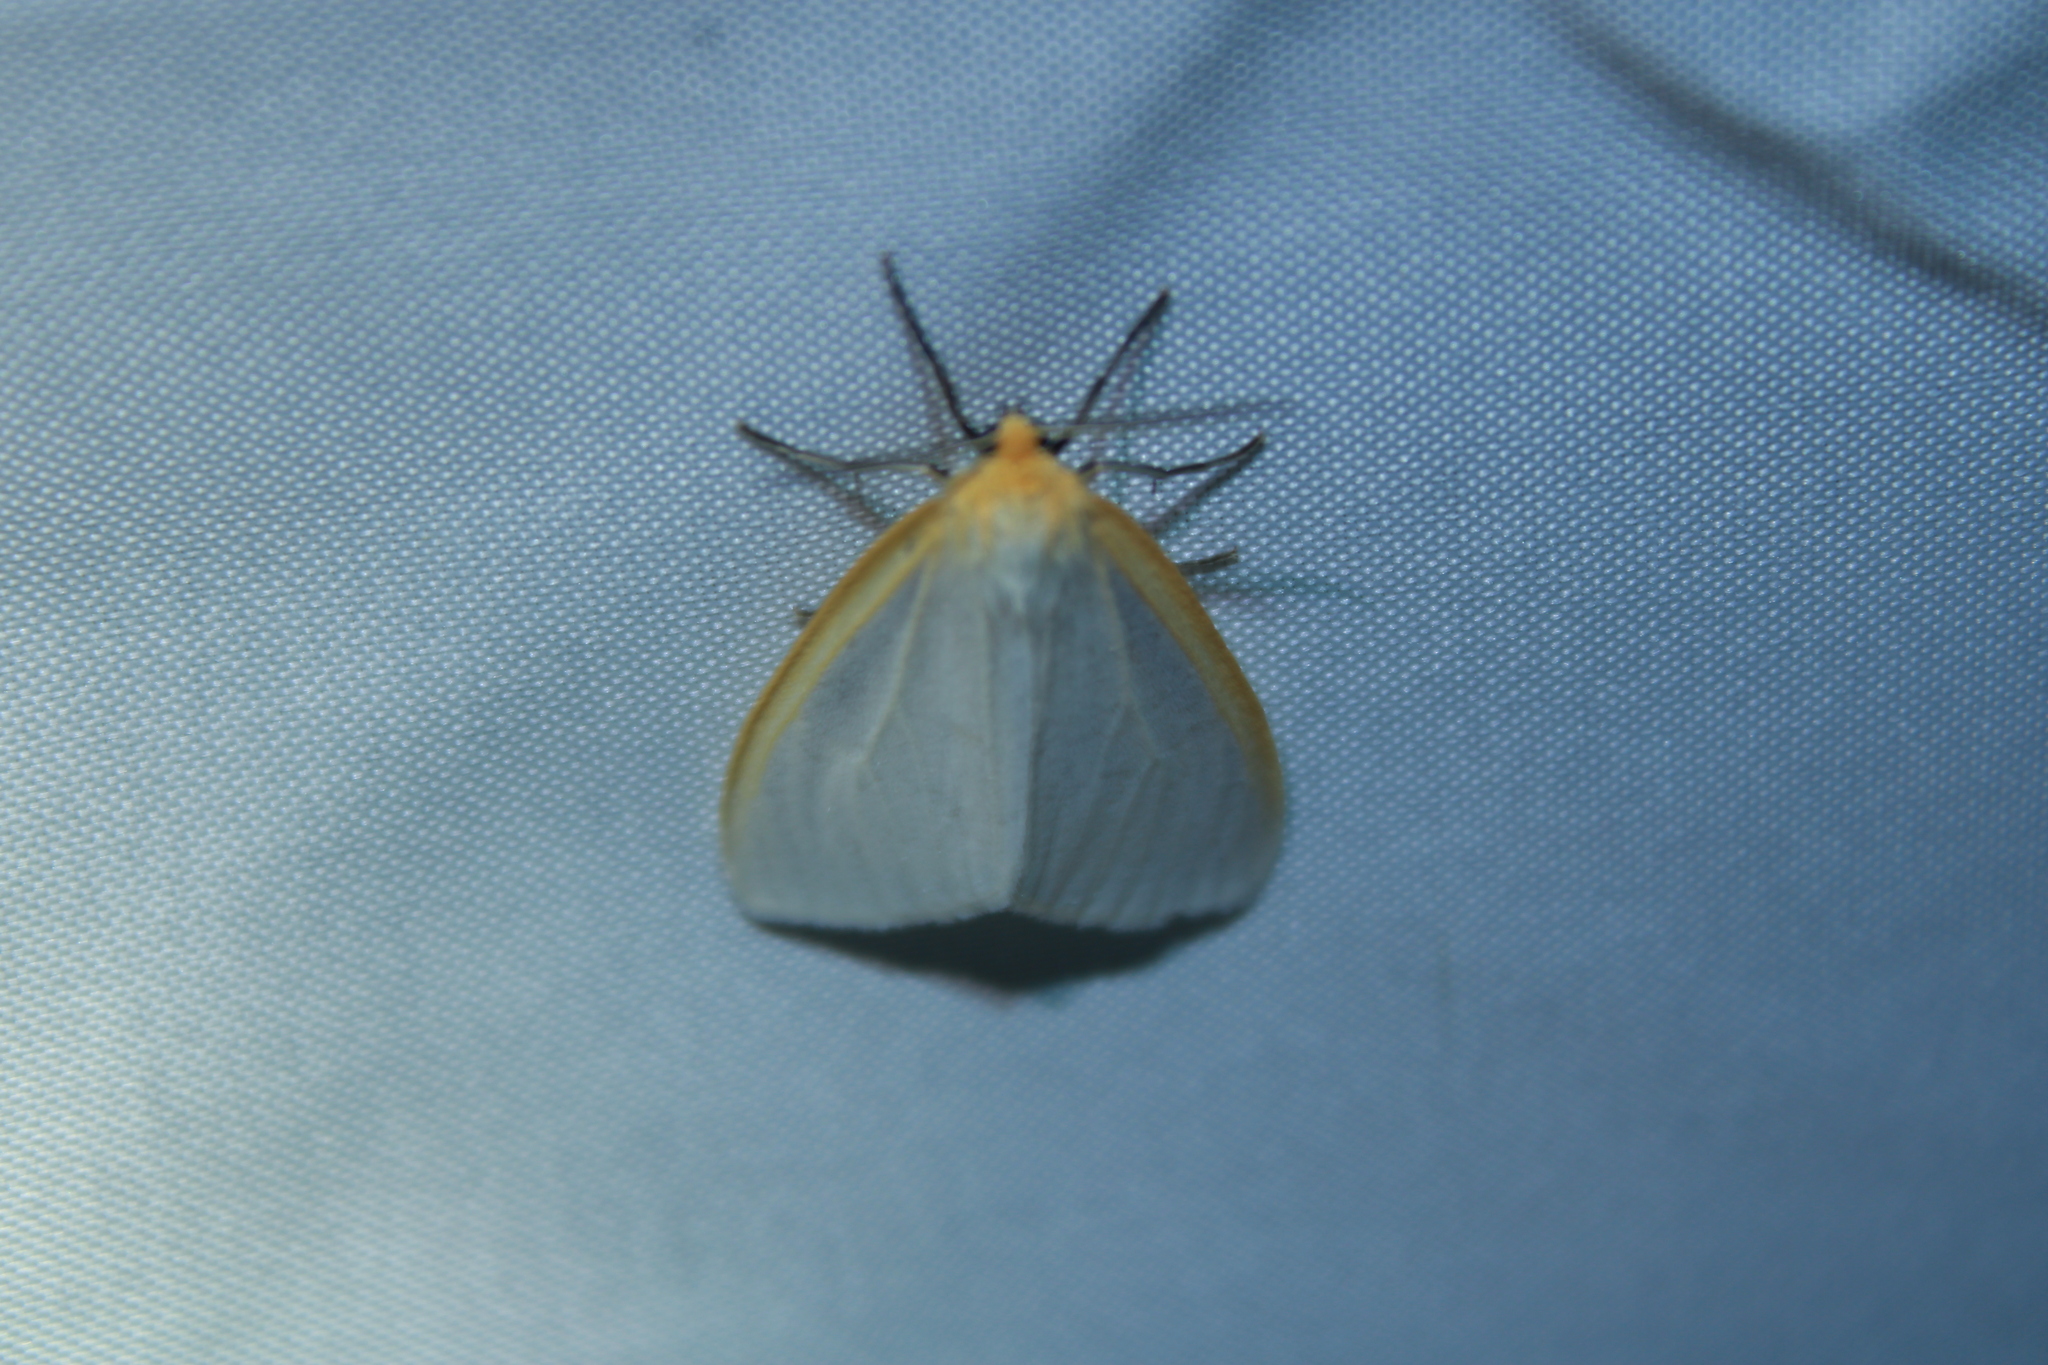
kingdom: Animalia
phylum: Arthropoda
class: Insecta
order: Lepidoptera
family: Erebidae
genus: Cycnia
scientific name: Cycnia tenera
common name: Delicate cycnia moth
